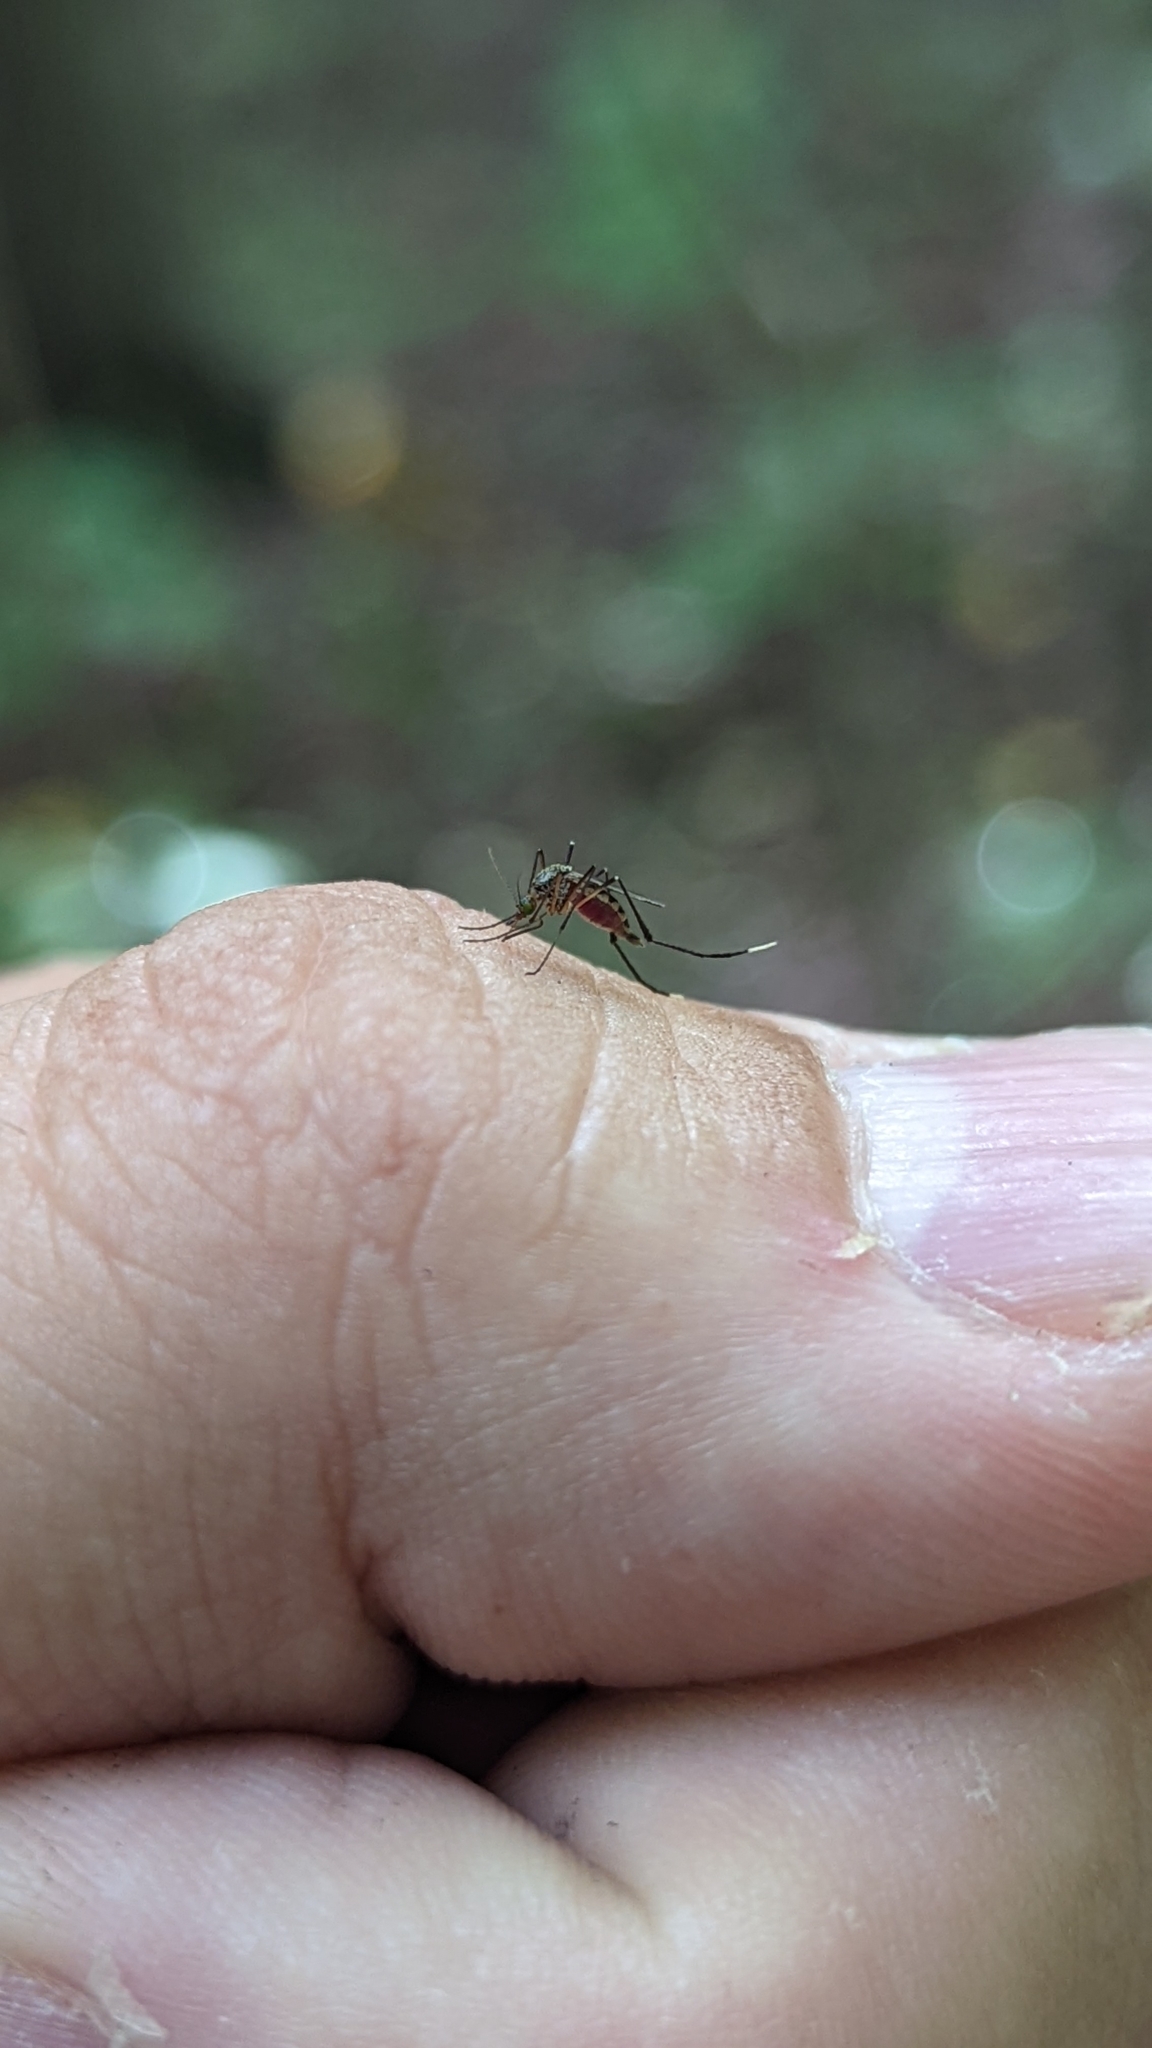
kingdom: Animalia
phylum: Arthropoda
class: Insecta
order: Diptera
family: Culicidae
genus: Psorophora
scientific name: Psorophora ferox
